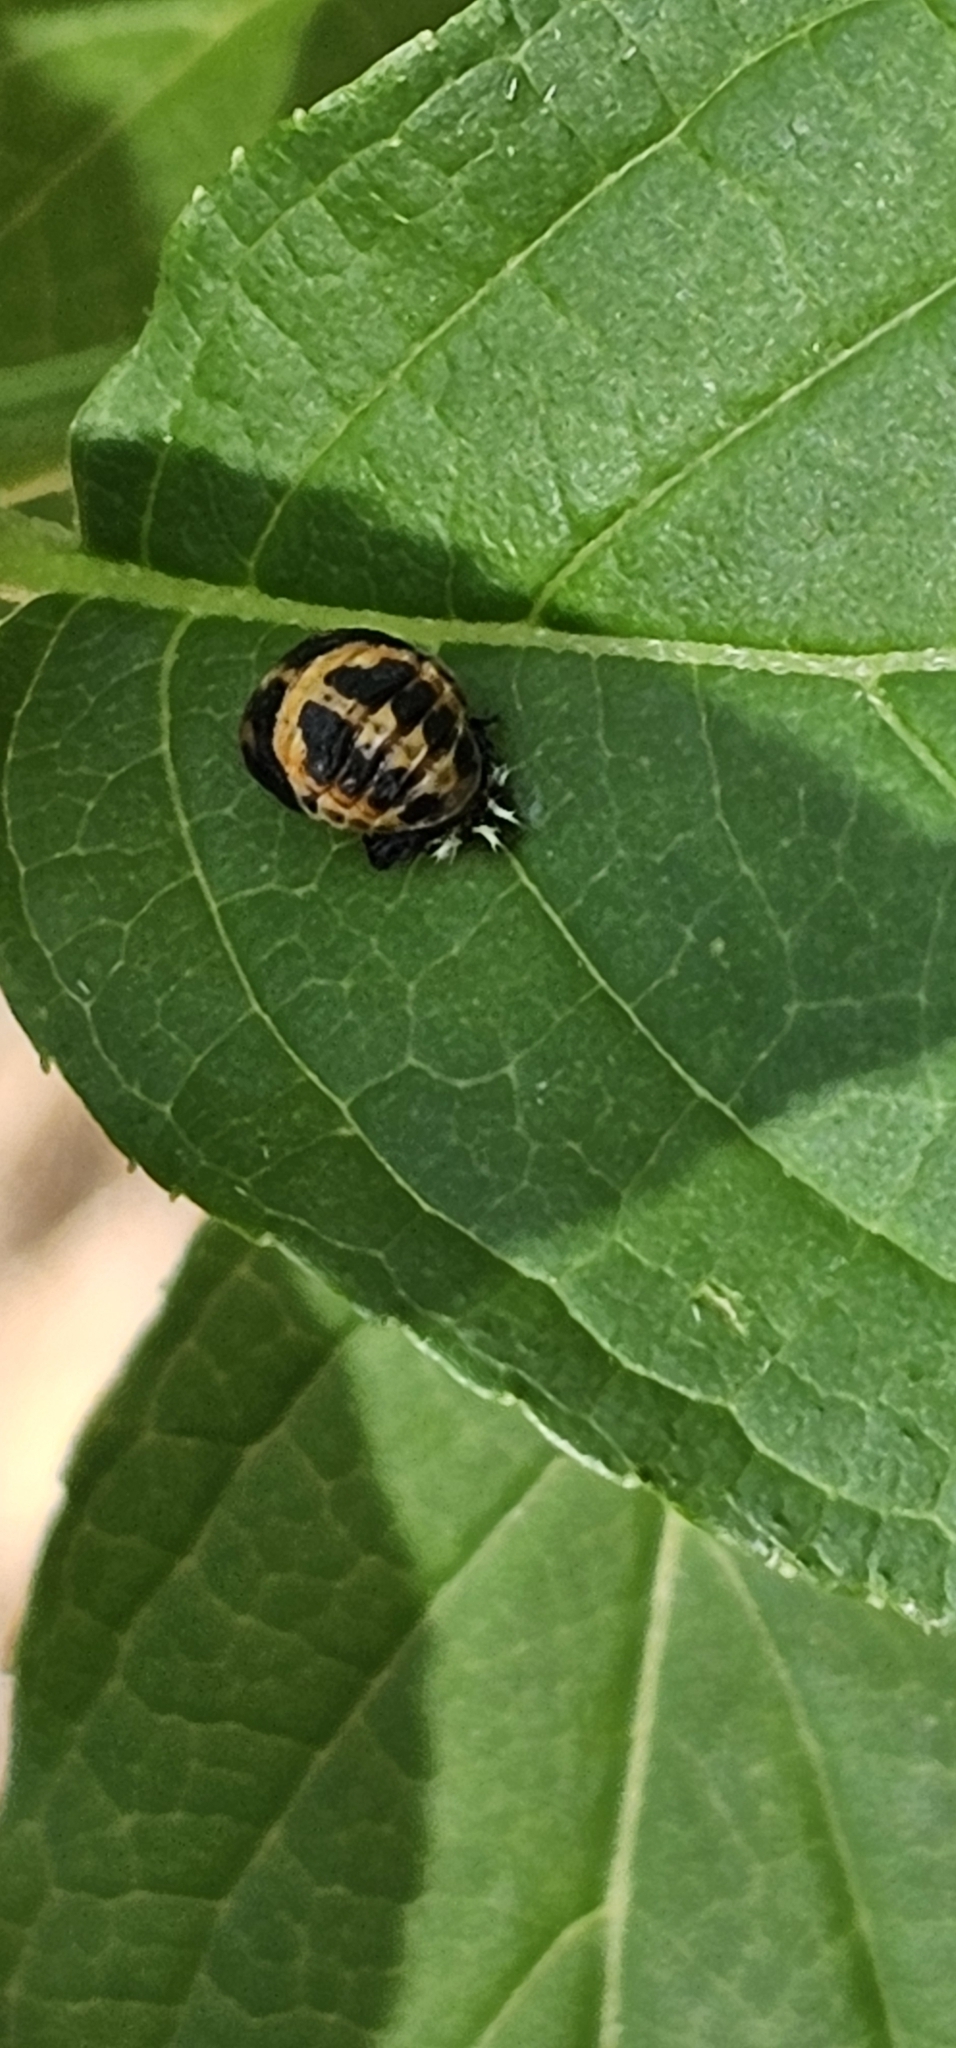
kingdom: Animalia
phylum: Arthropoda
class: Insecta
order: Coleoptera
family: Coccinellidae
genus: Harmonia
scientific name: Harmonia axyridis
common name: Harlequin ladybird
